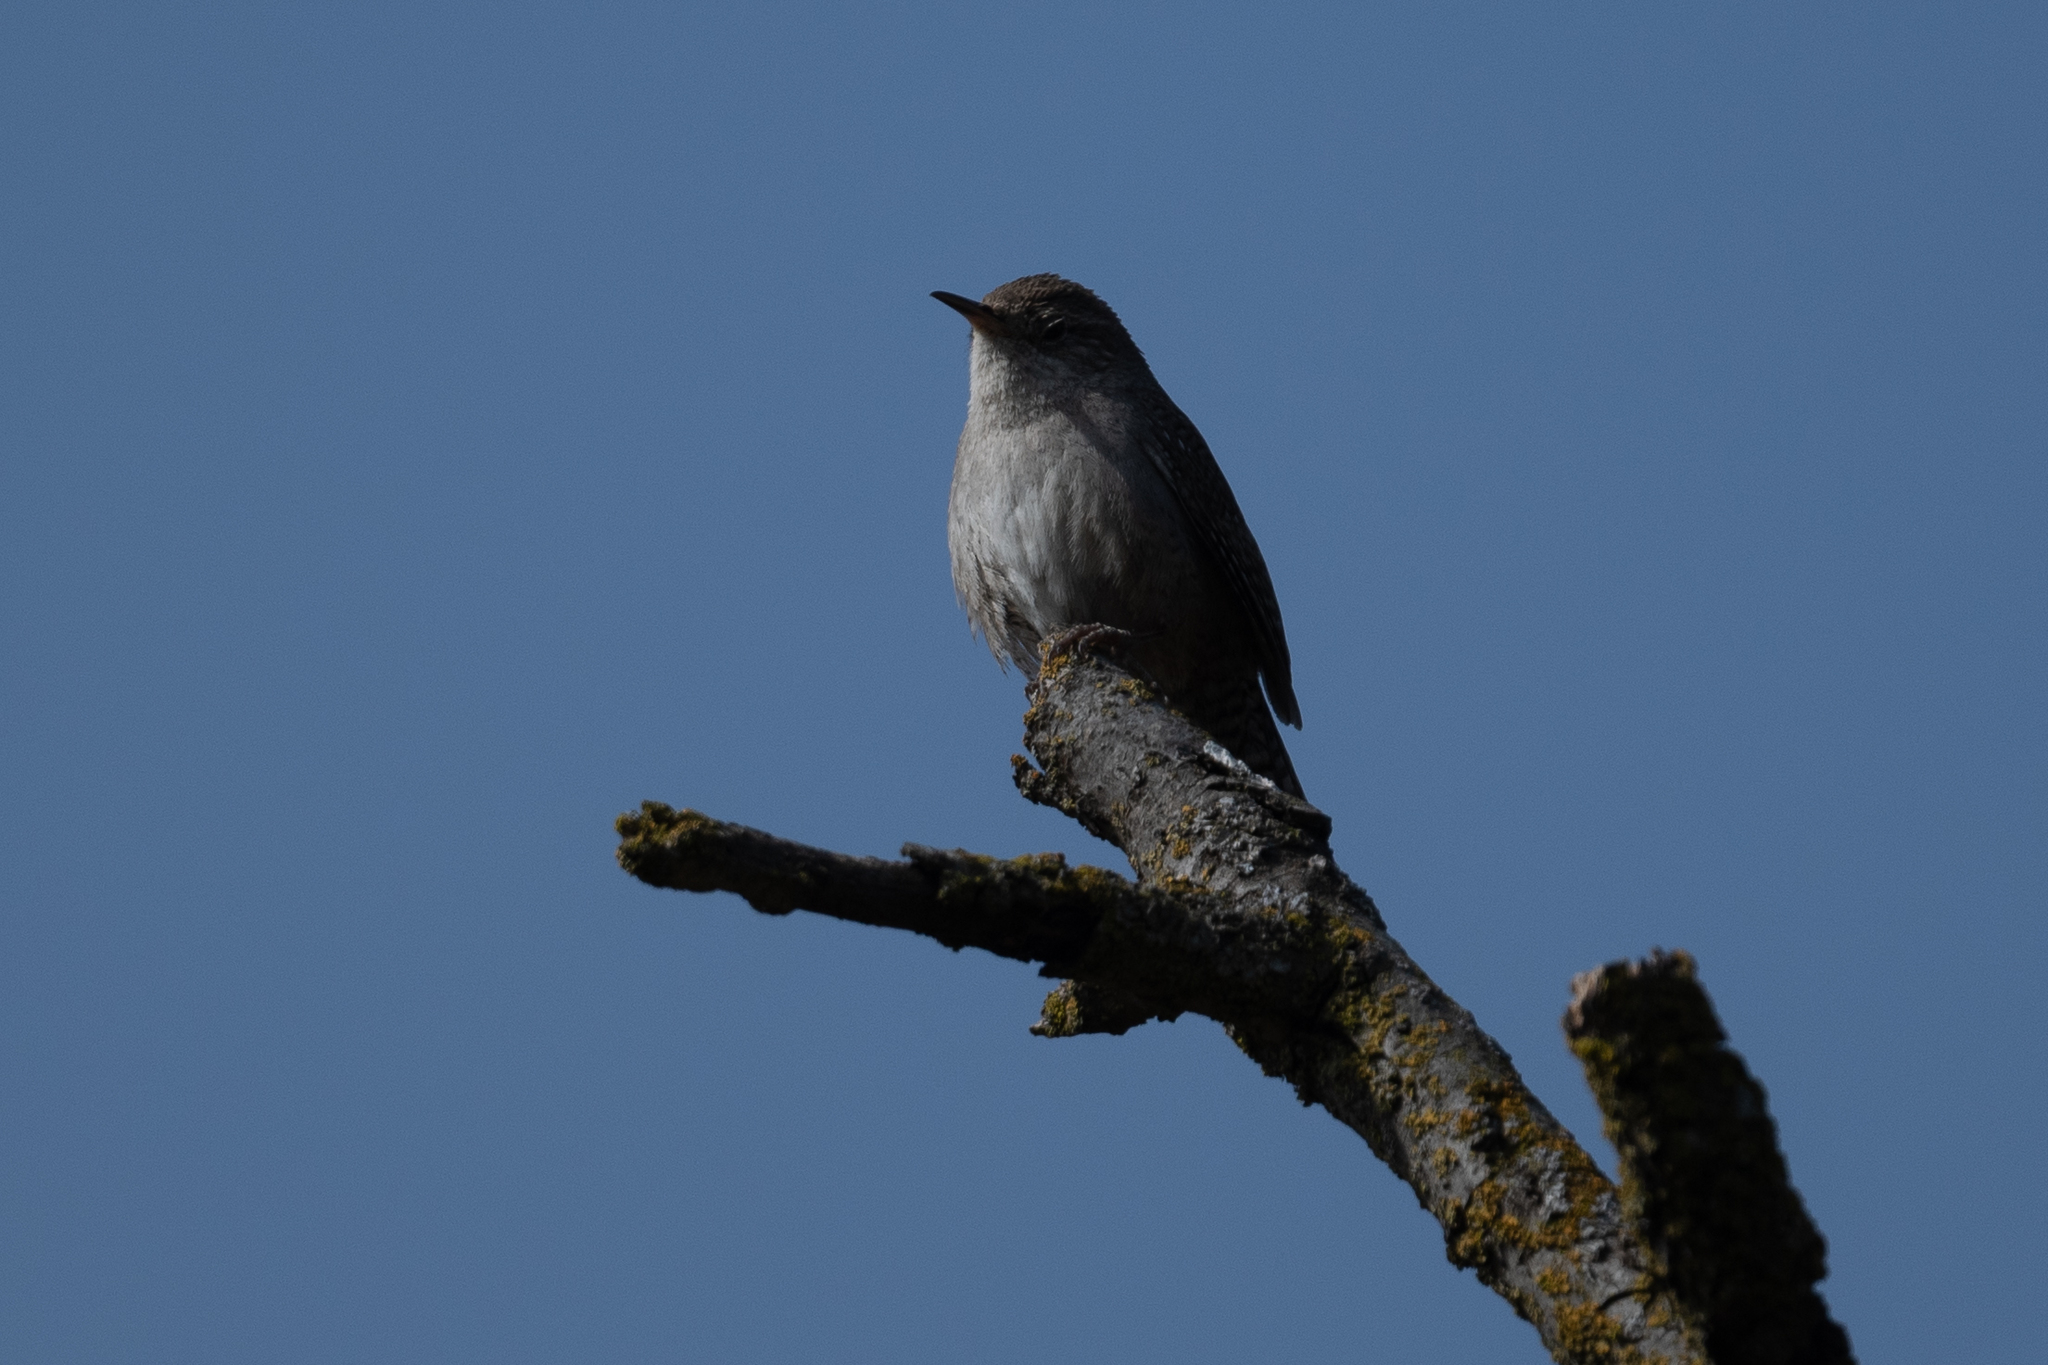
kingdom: Animalia
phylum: Chordata
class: Aves
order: Passeriformes
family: Troglodytidae
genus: Troglodytes
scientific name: Troglodytes aedon
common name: House wren
